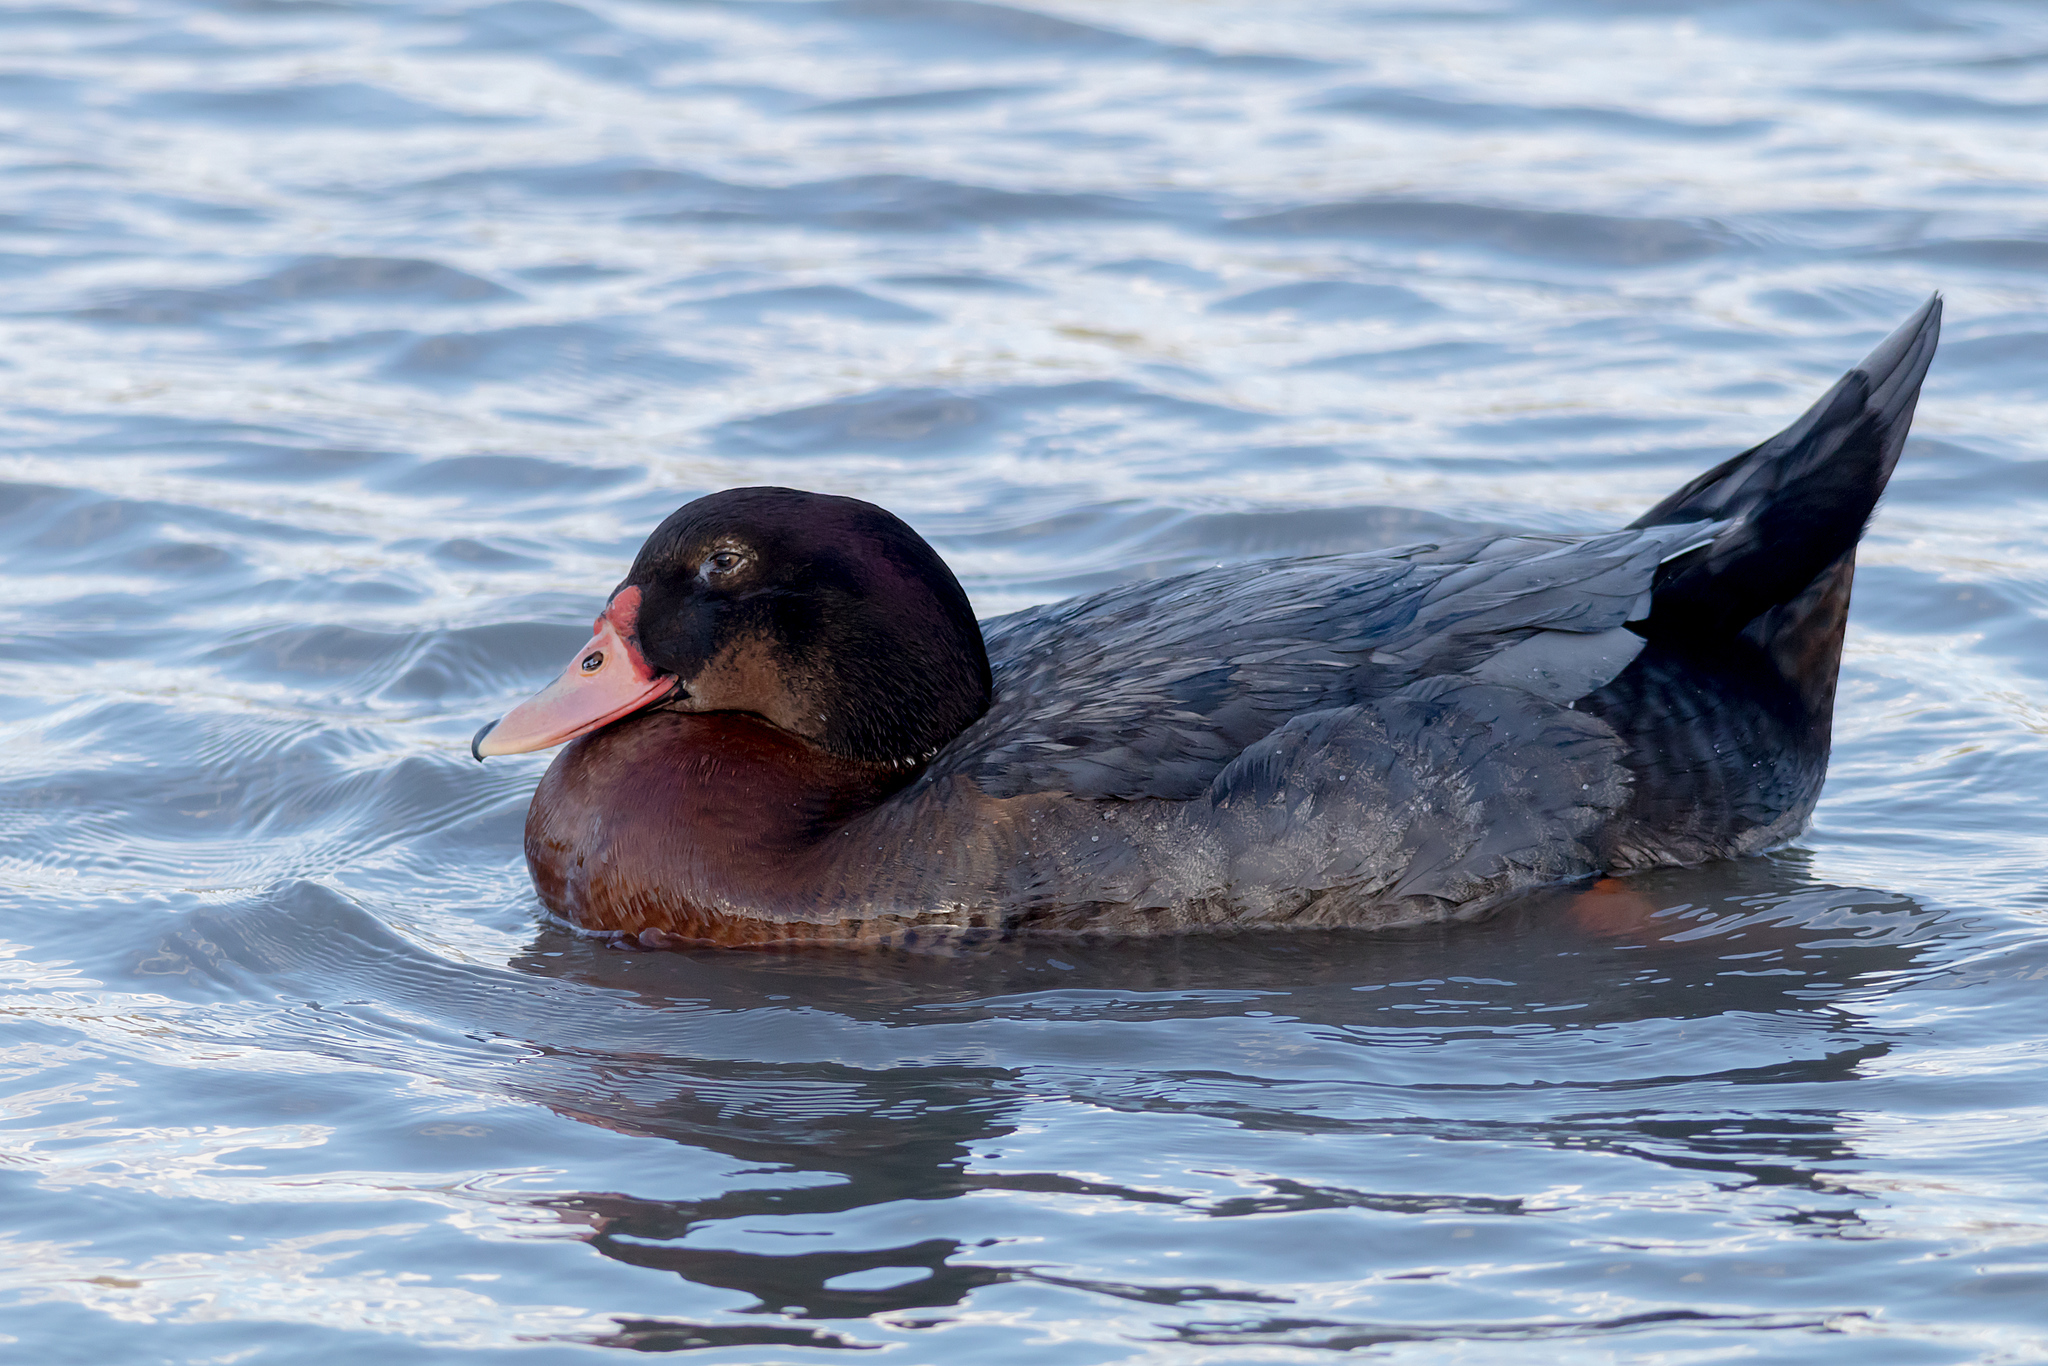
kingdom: Animalia
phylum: Chordata
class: Aves
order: Anseriformes
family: Anatidae
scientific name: Anatidae
